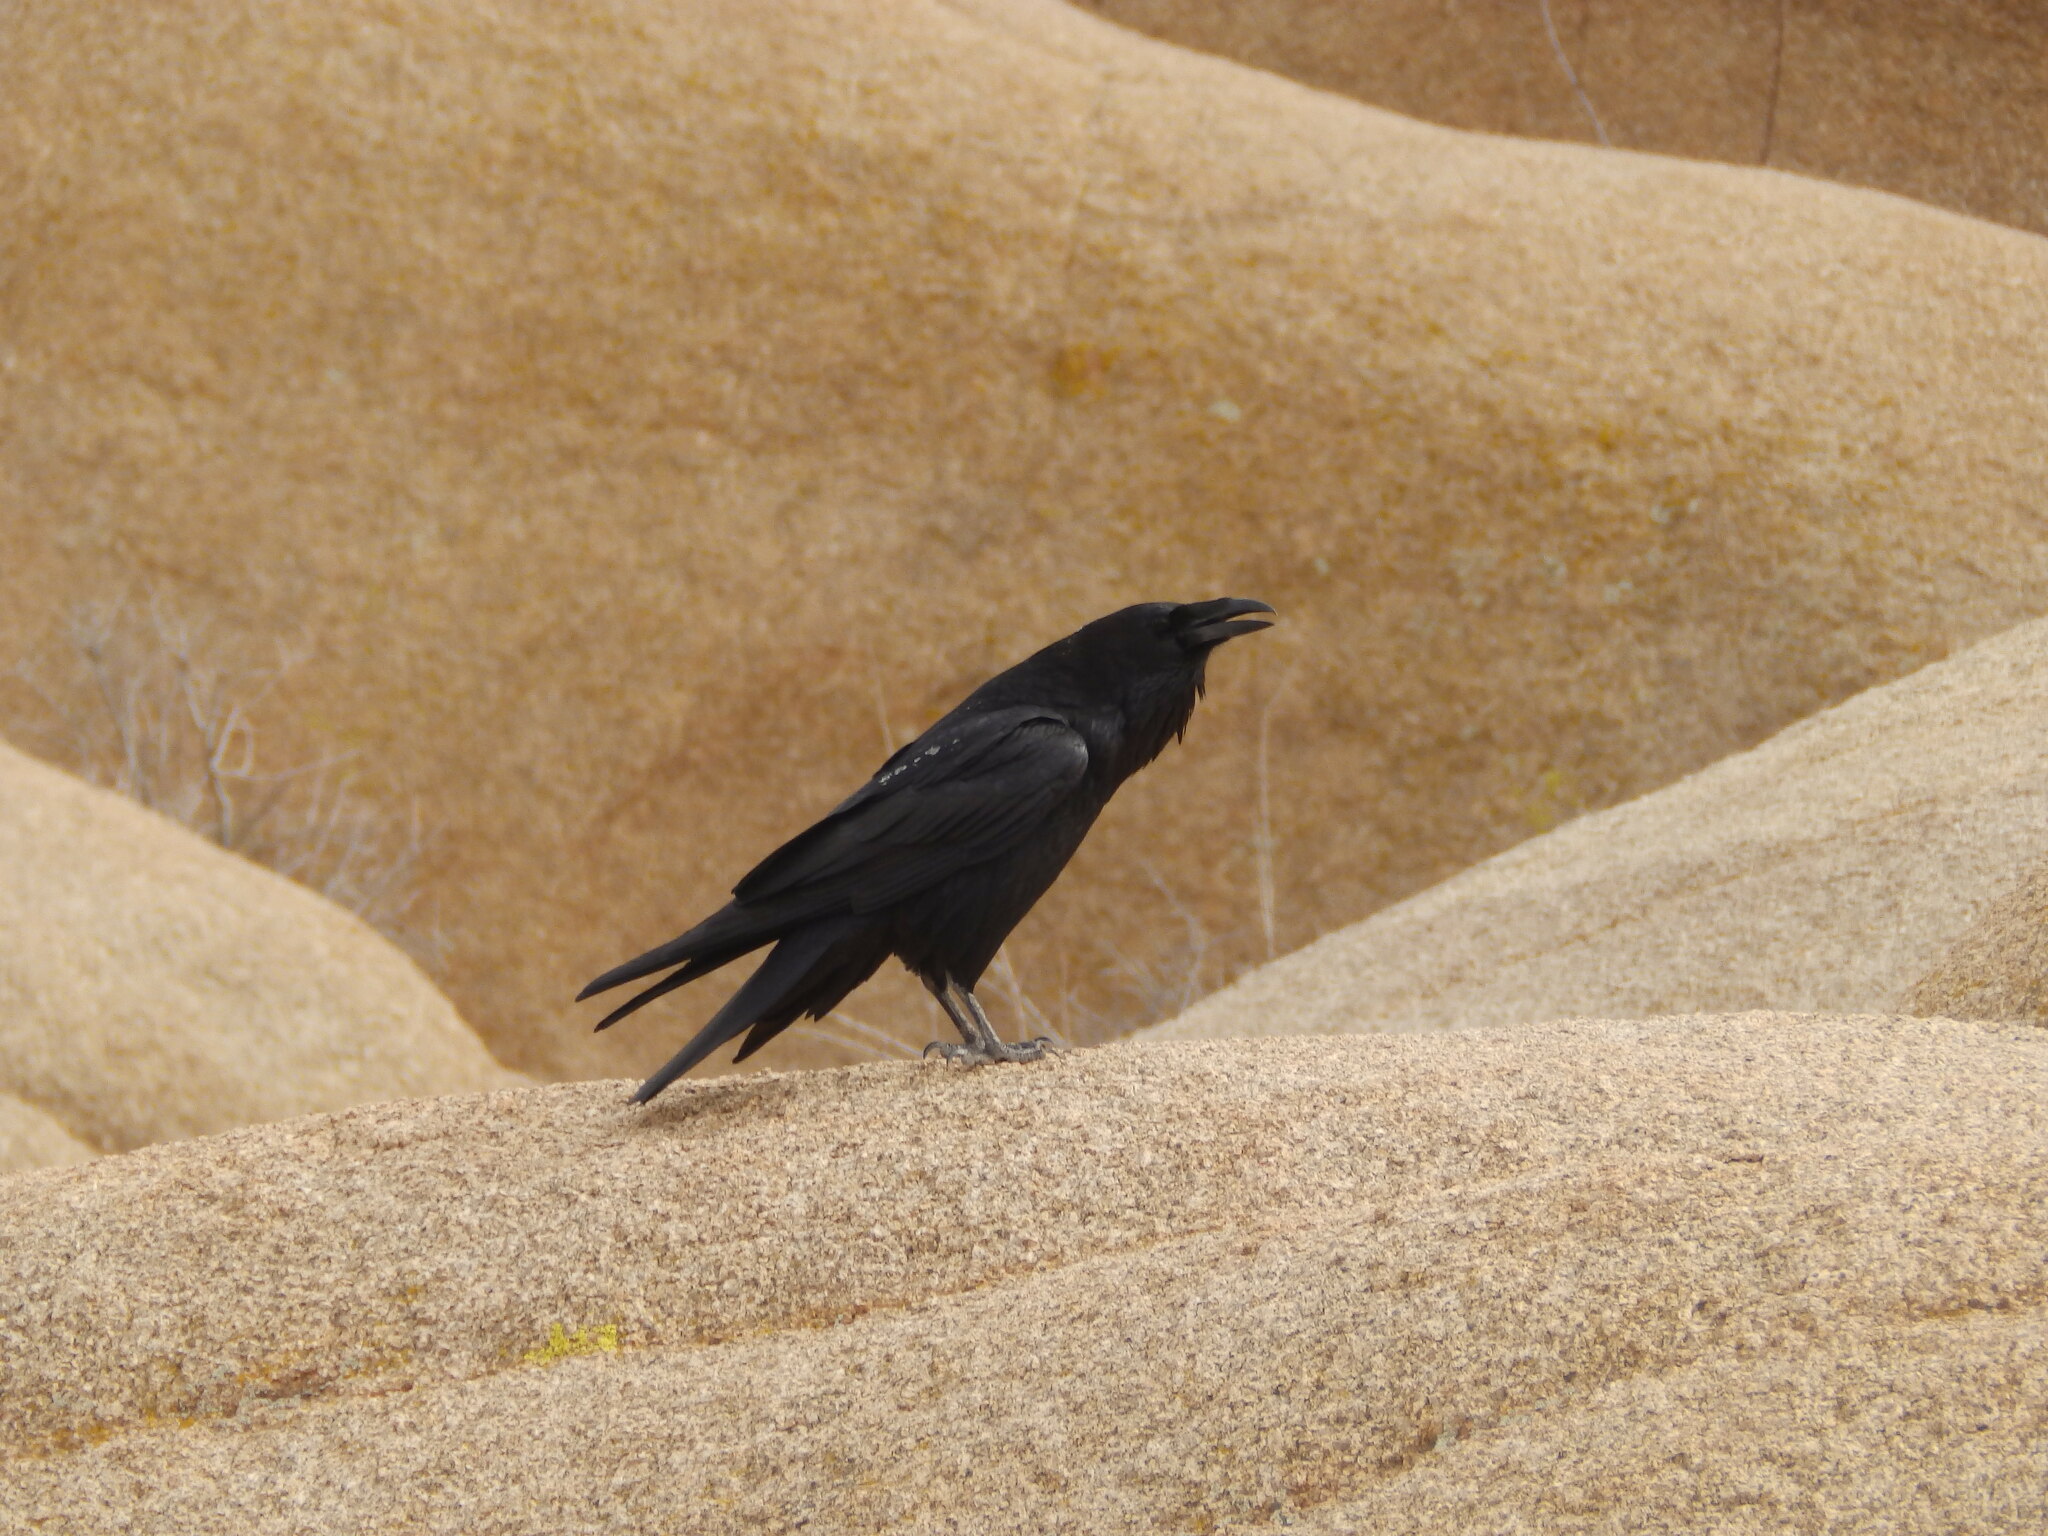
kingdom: Animalia
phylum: Chordata
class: Aves
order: Passeriformes
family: Corvidae
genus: Corvus
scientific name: Corvus corax
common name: Common raven
